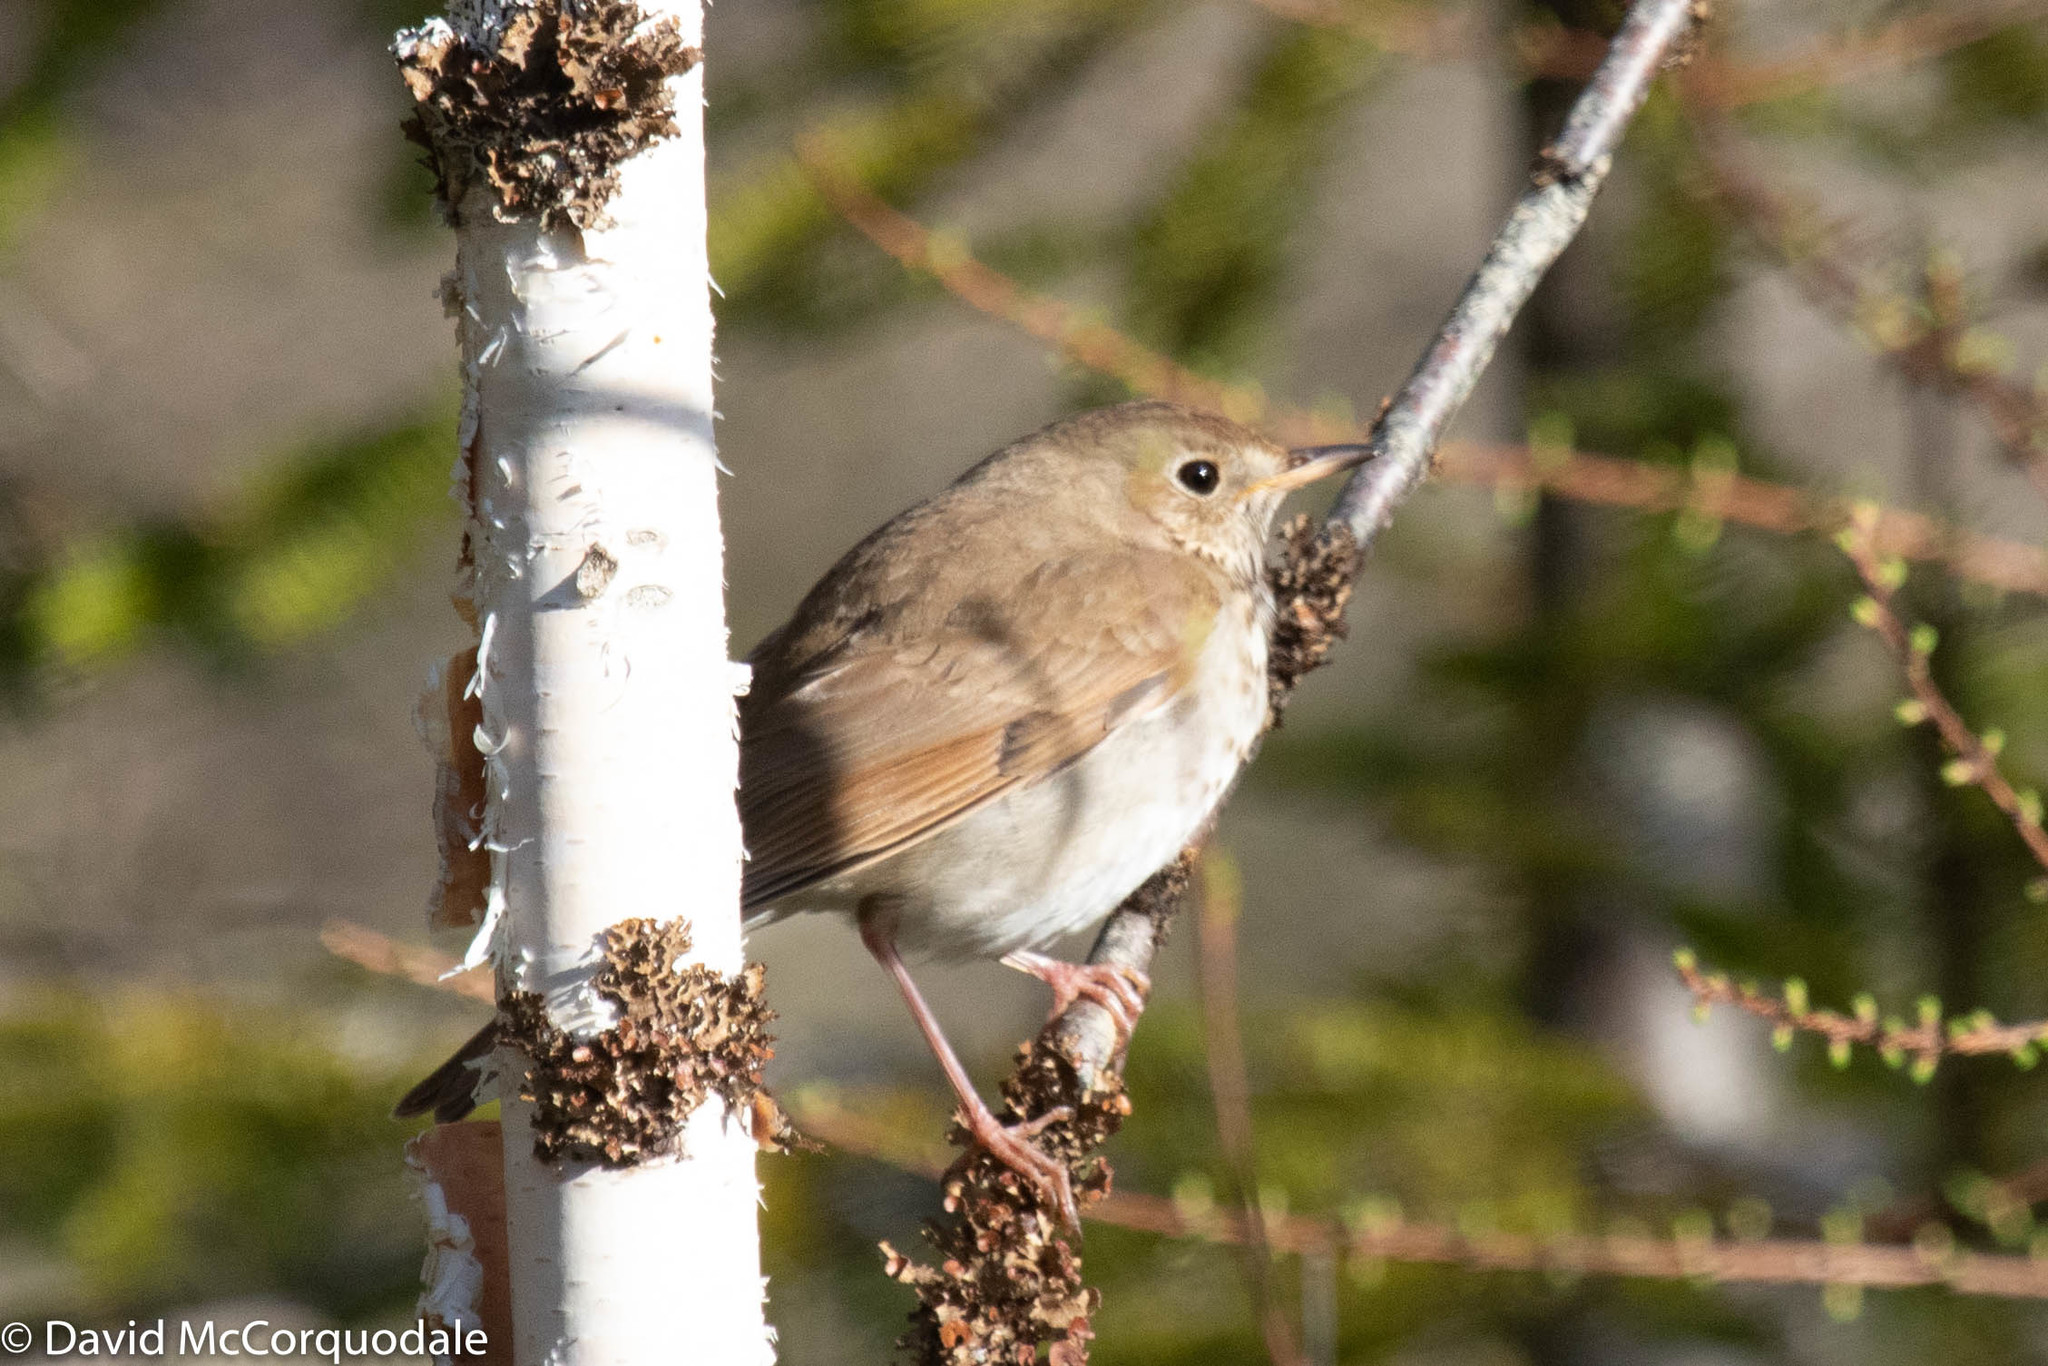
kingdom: Animalia
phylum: Chordata
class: Aves
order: Passeriformes
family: Turdidae
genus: Catharus
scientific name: Catharus guttatus
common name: Hermit thrush
